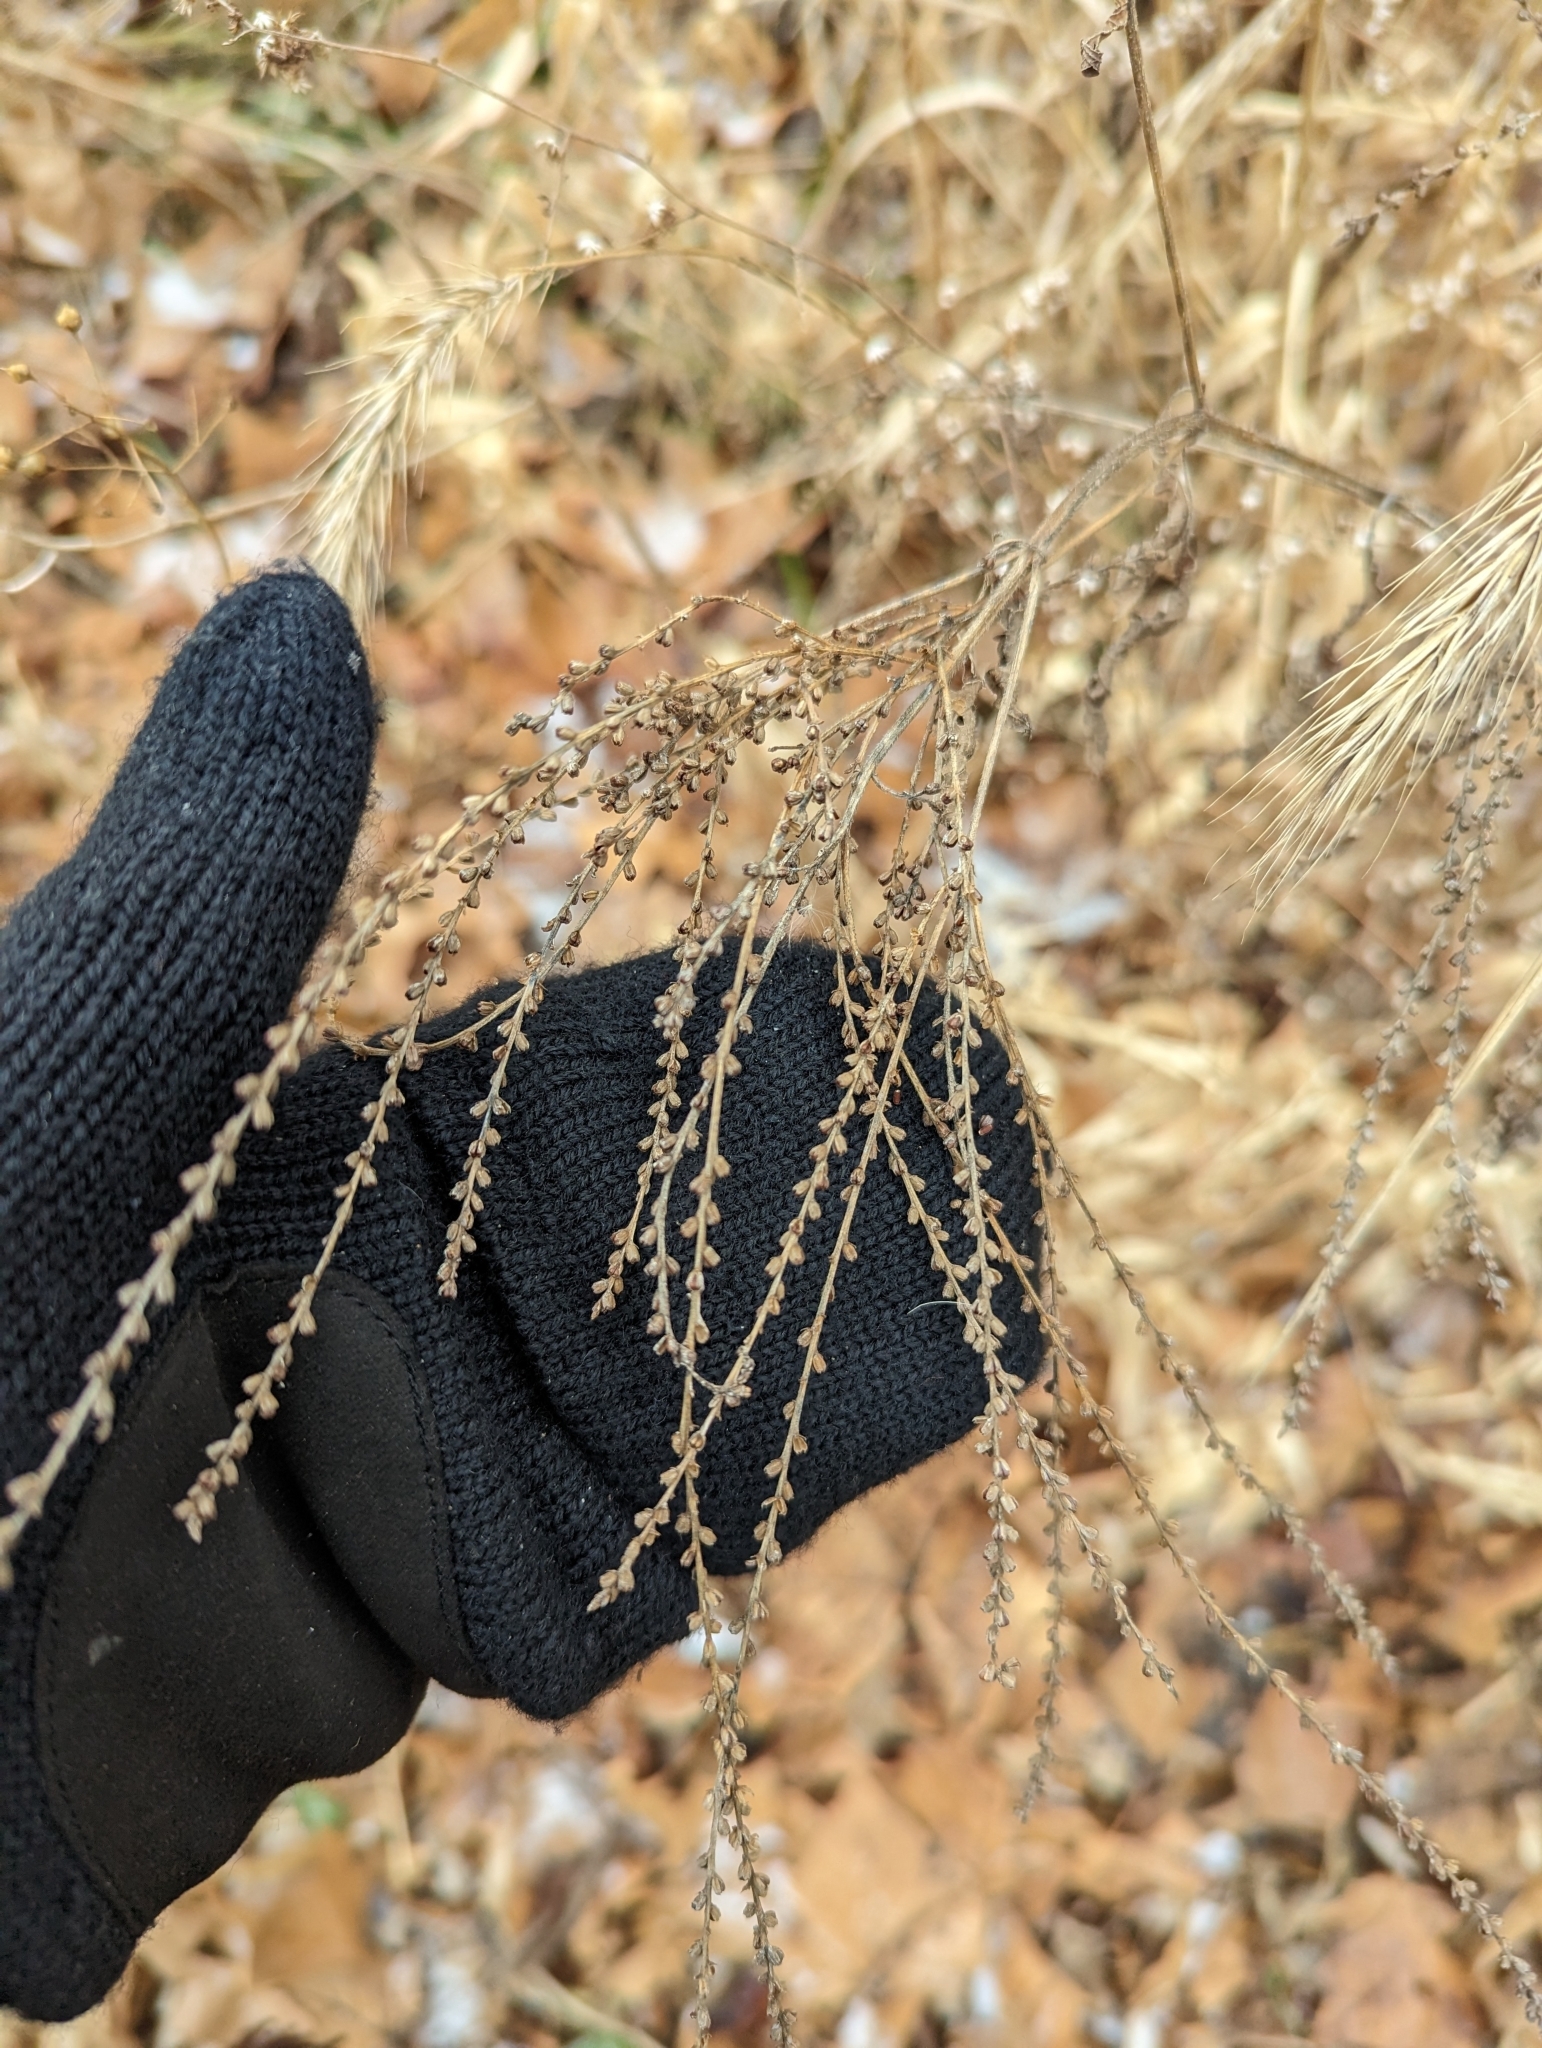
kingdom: Plantae
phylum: Tracheophyta
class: Magnoliopsida
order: Lamiales
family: Verbenaceae
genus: Verbena
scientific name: Verbena urticifolia
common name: Nettle-leaved vervain
